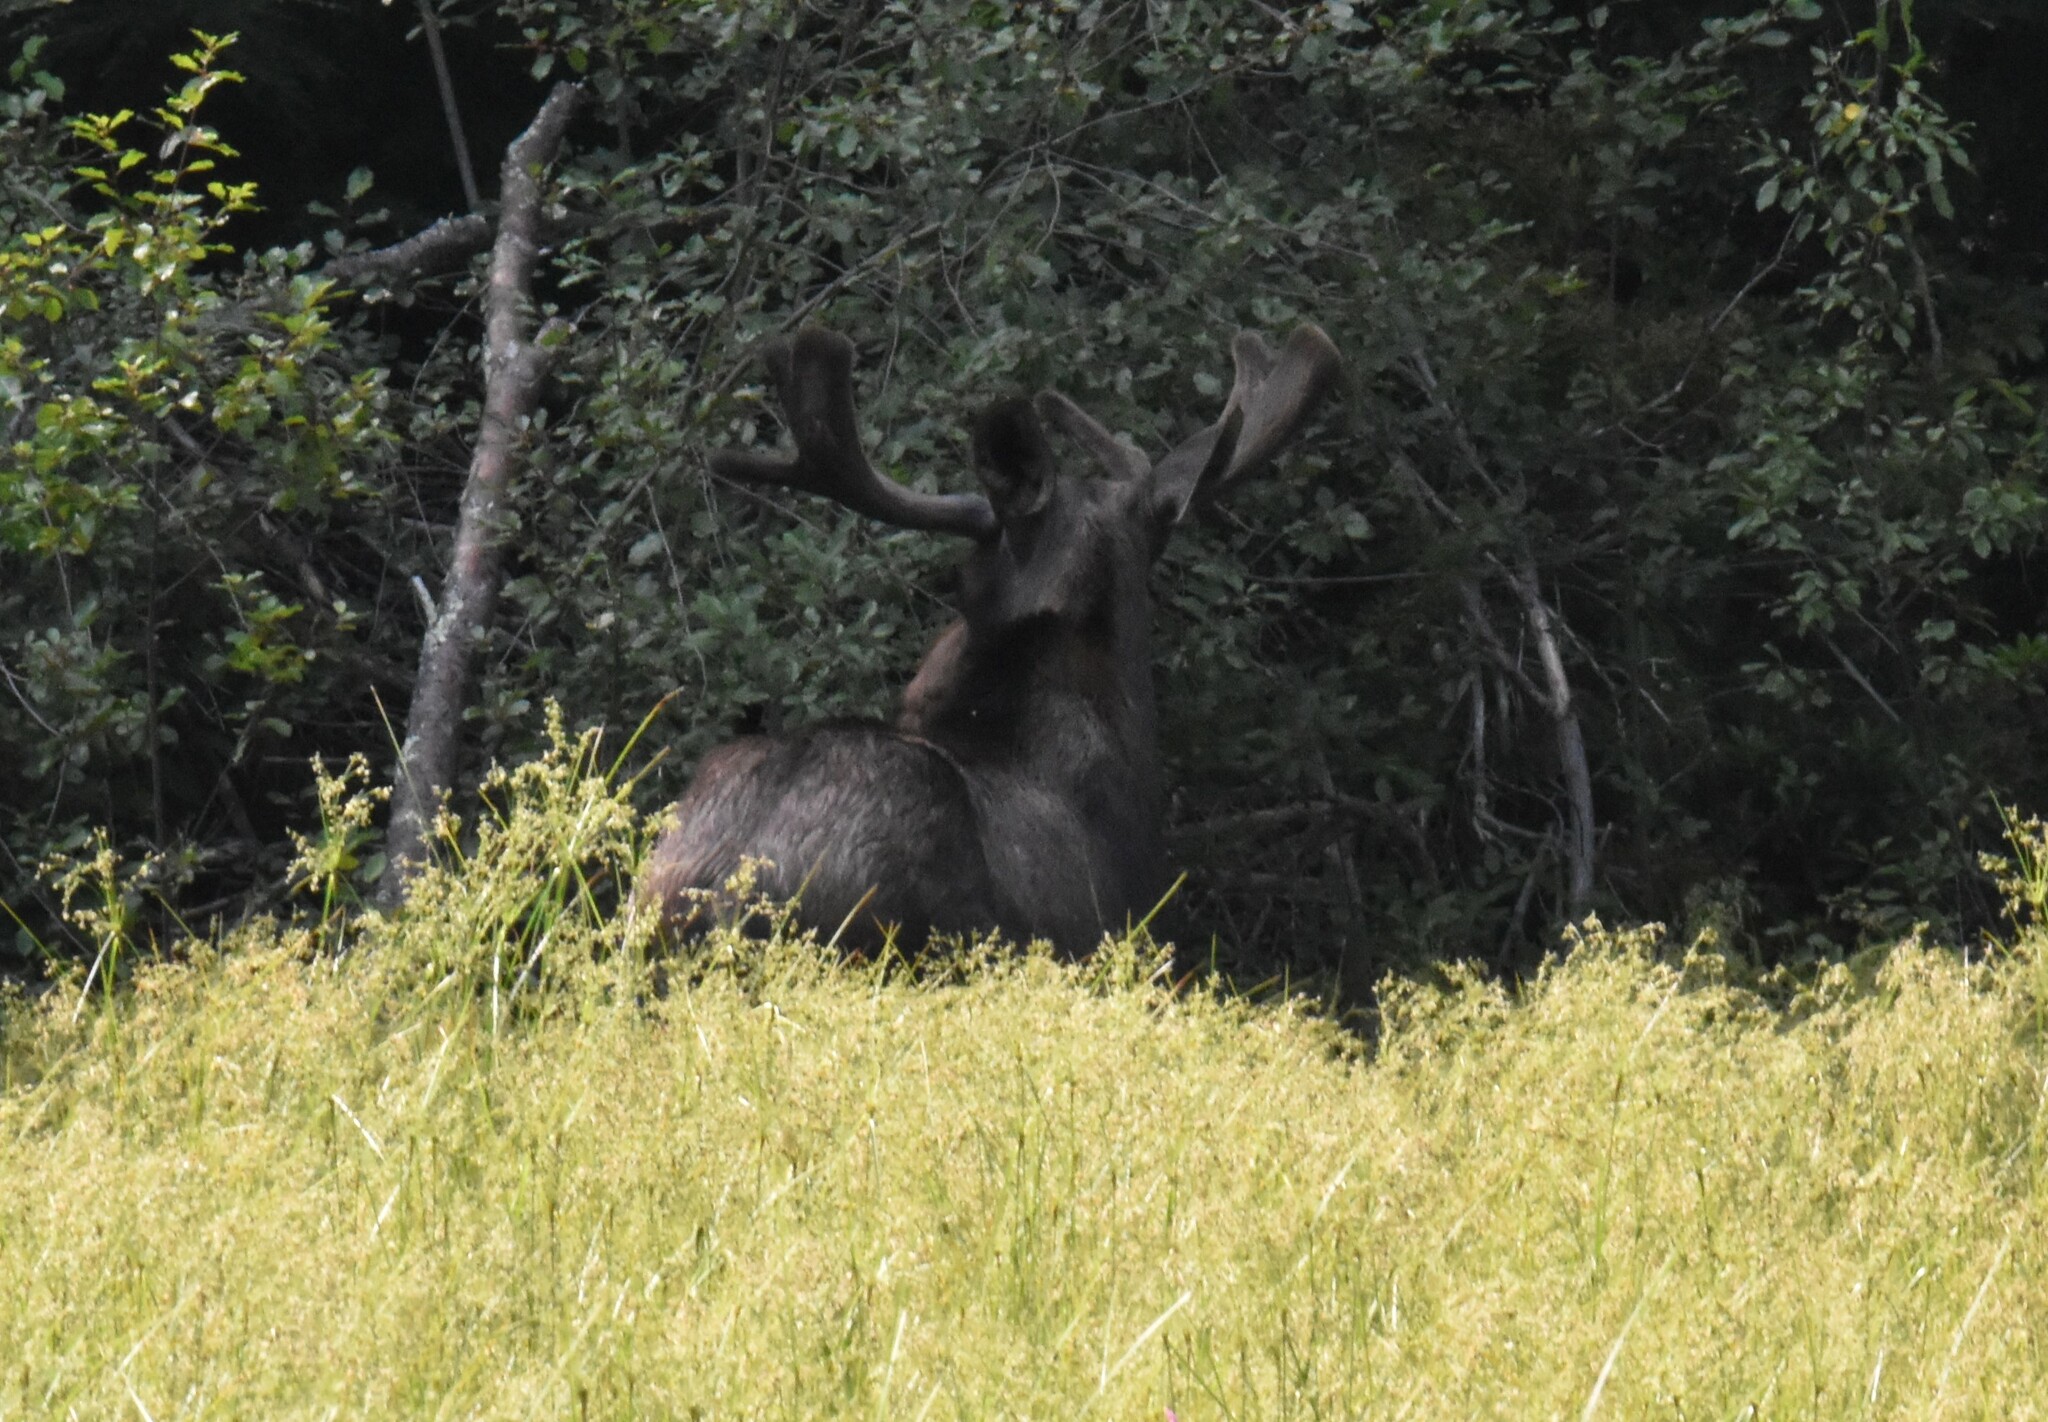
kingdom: Animalia
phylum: Chordata
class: Mammalia
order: Artiodactyla
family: Cervidae
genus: Alces
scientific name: Alces alces
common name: Moose
